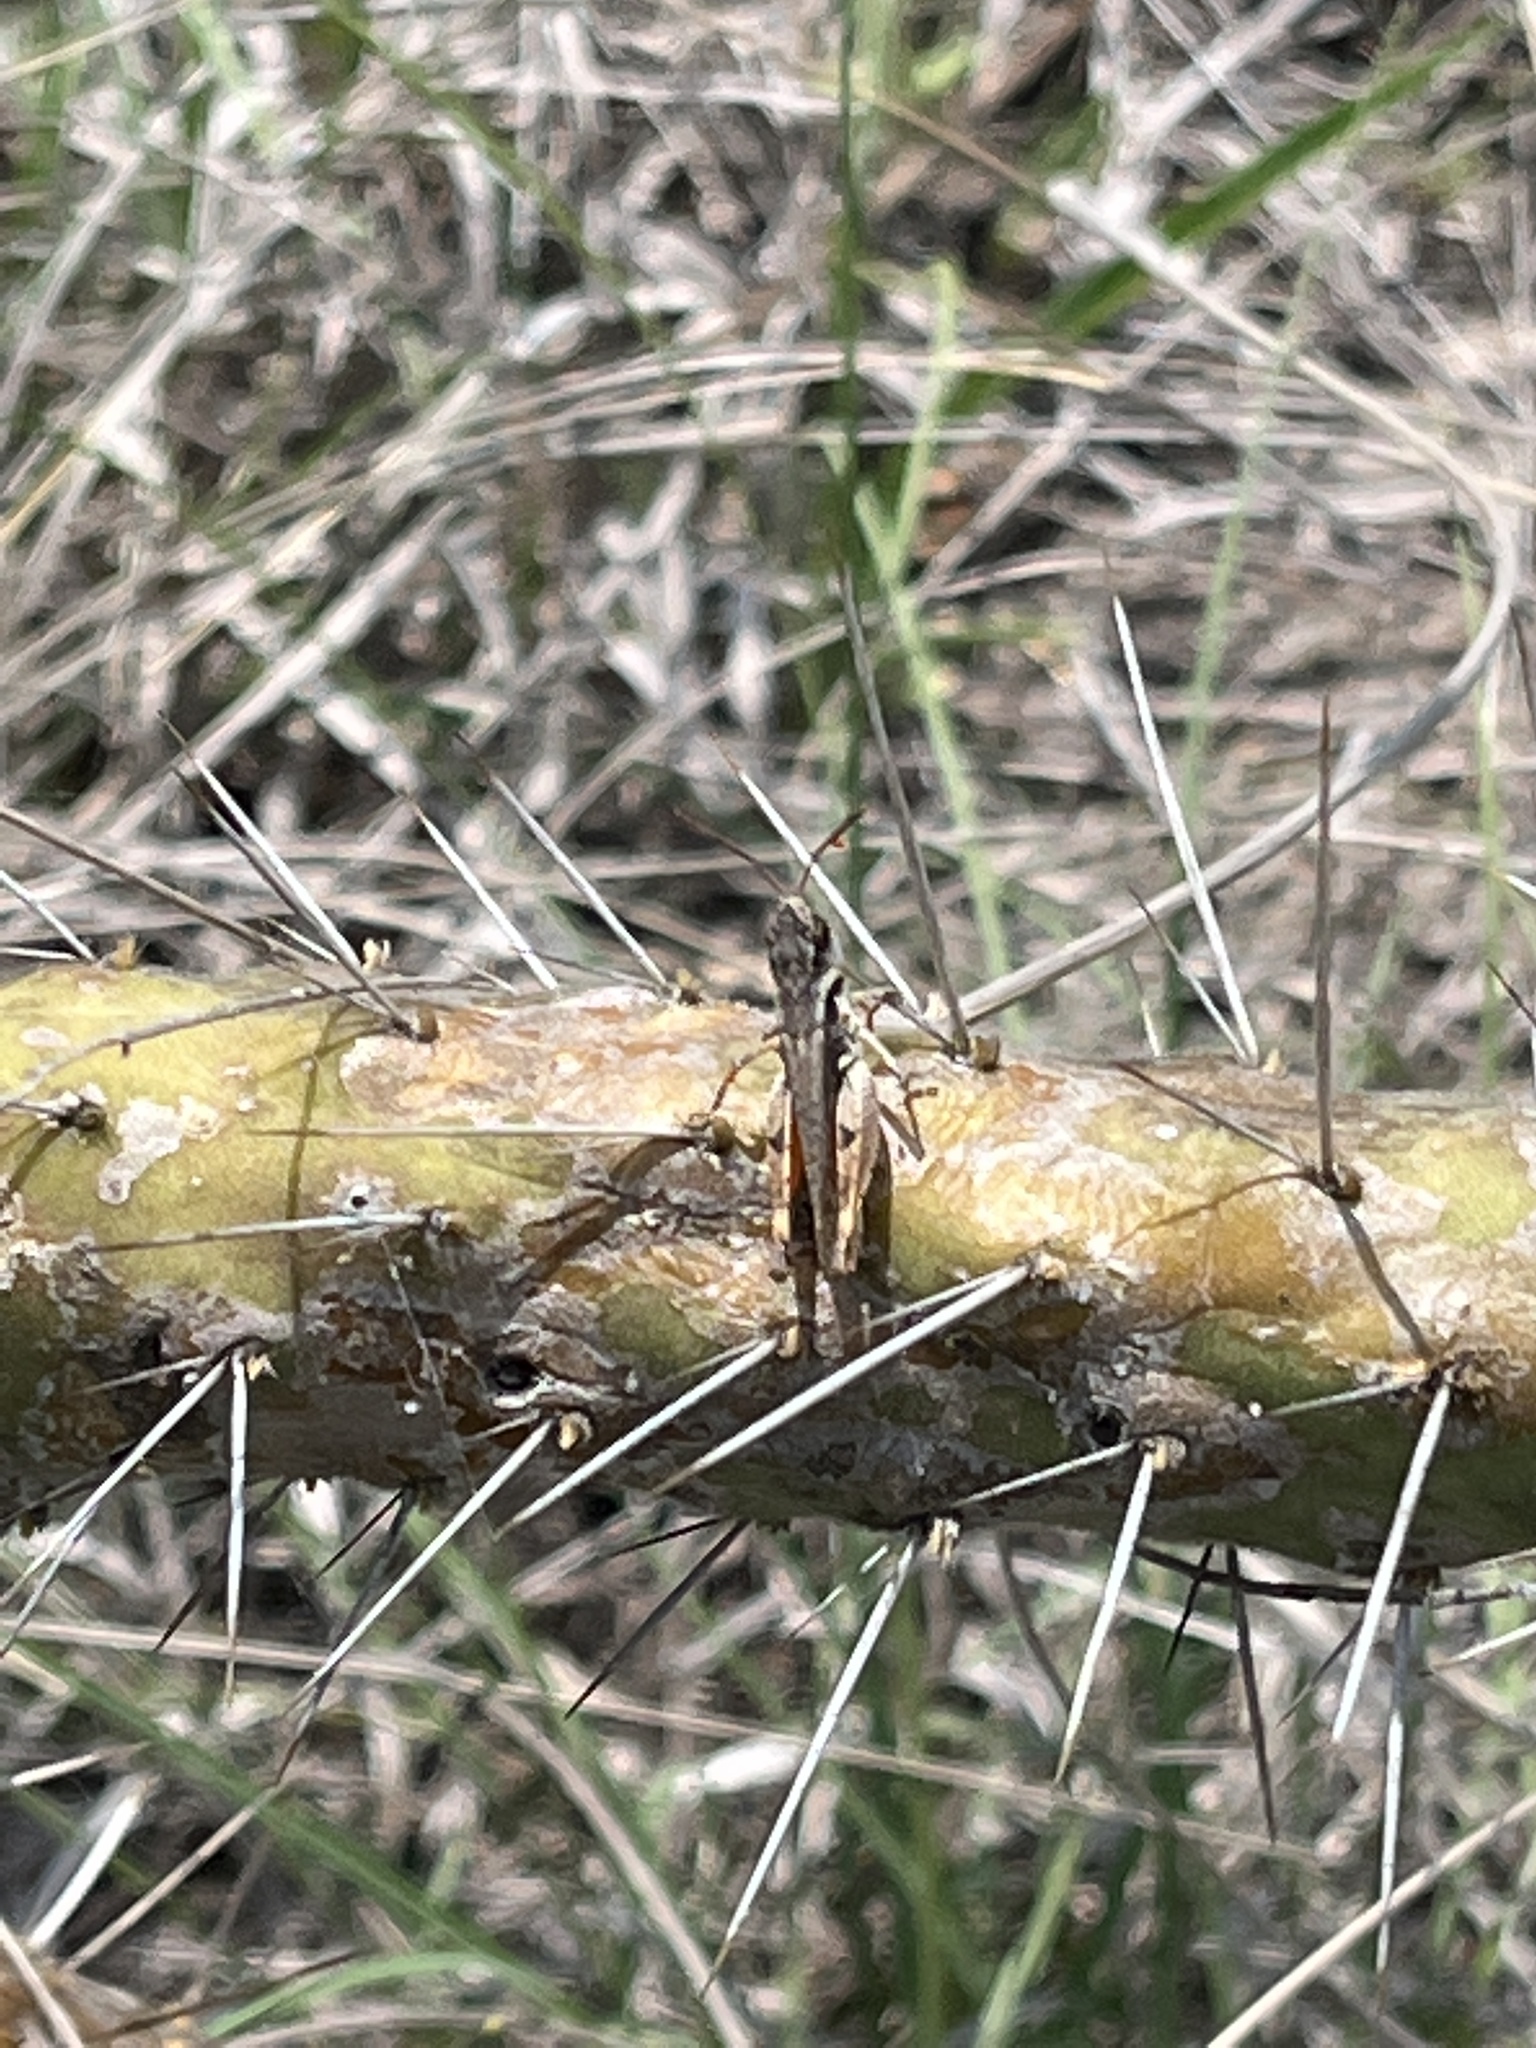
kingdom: Animalia
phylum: Arthropoda
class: Insecta
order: Orthoptera
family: Acrididae
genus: Rhammatocerus
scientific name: Rhammatocerus salinus
